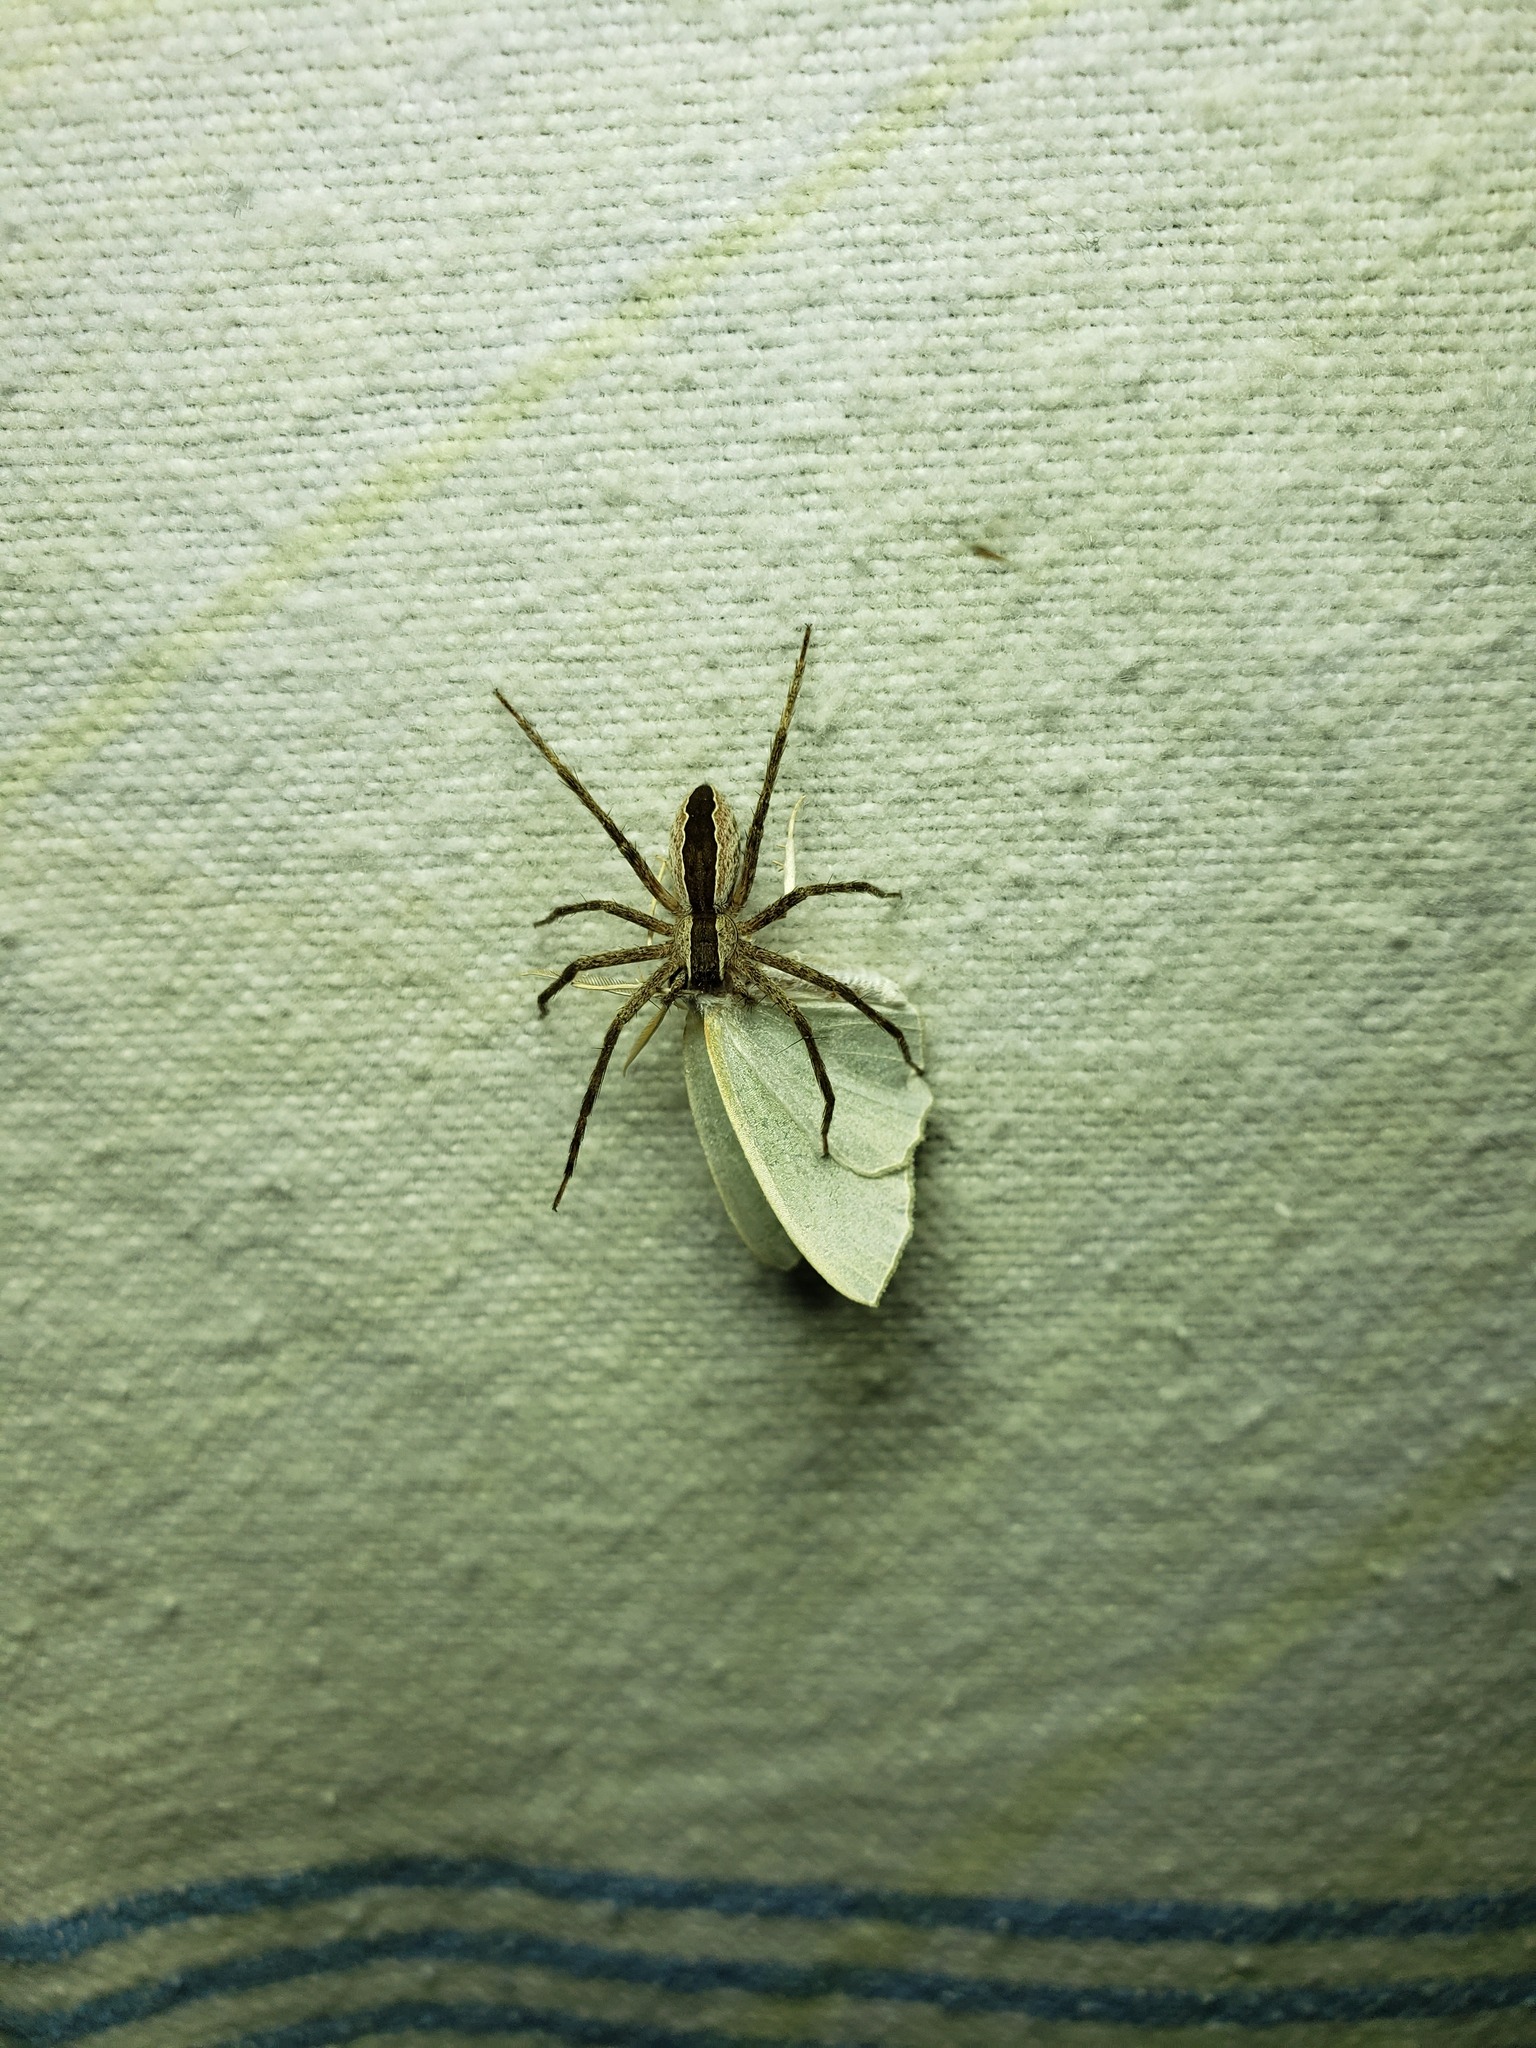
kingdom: Animalia
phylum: Arthropoda
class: Arachnida
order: Araneae
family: Pisauridae
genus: Pisaurina
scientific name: Pisaurina mira
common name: American nursery web spider
